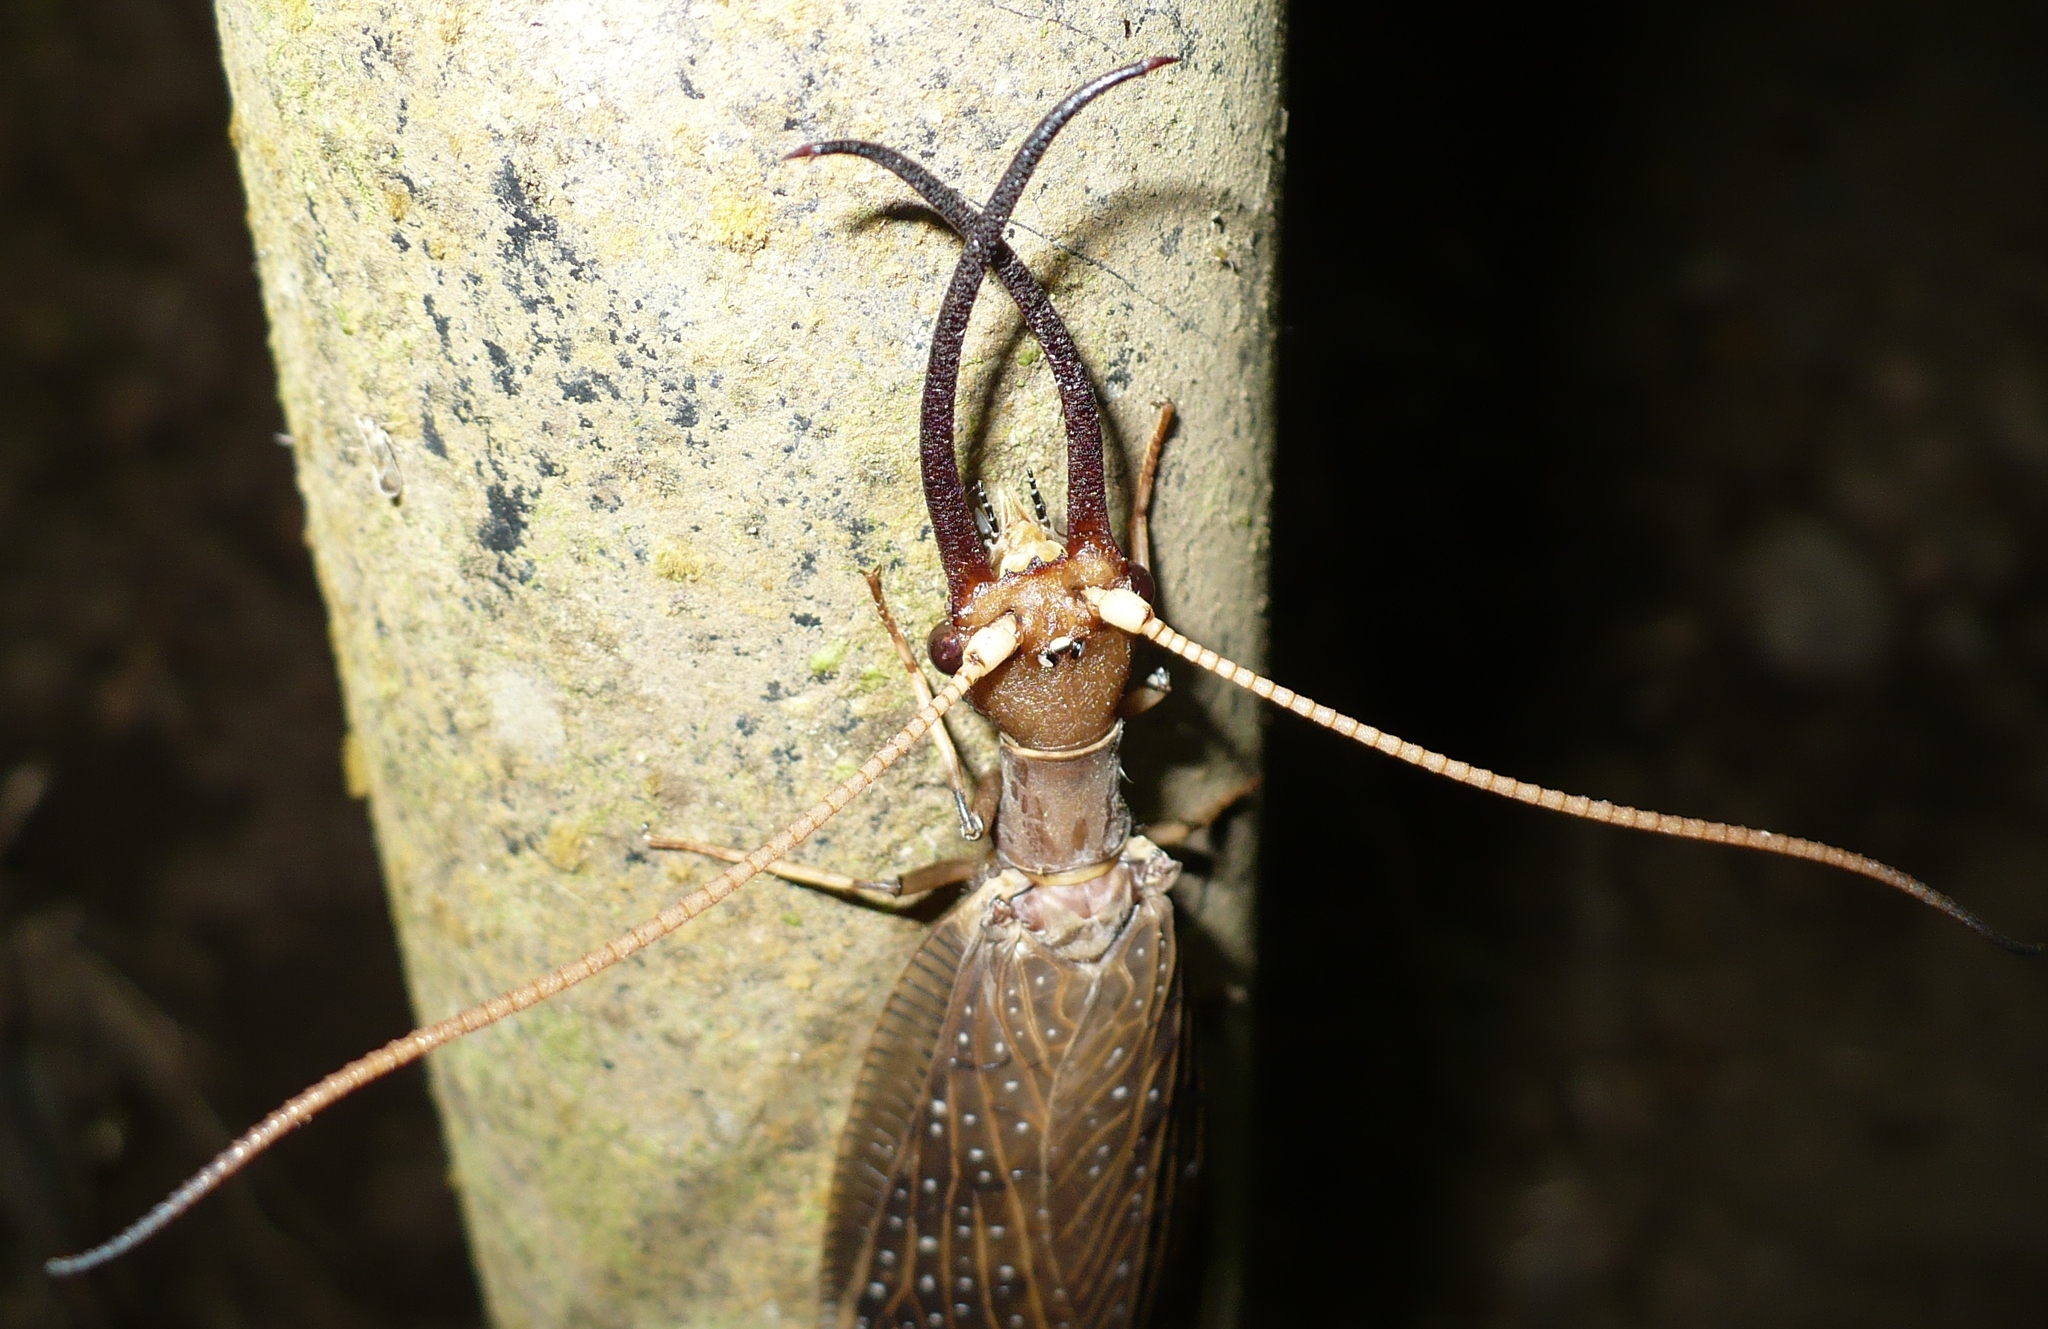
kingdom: Animalia
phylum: Arthropoda
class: Insecta
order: Megaloptera
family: Corydalidae
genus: Corydalus
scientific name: Corydalus peruvianus
